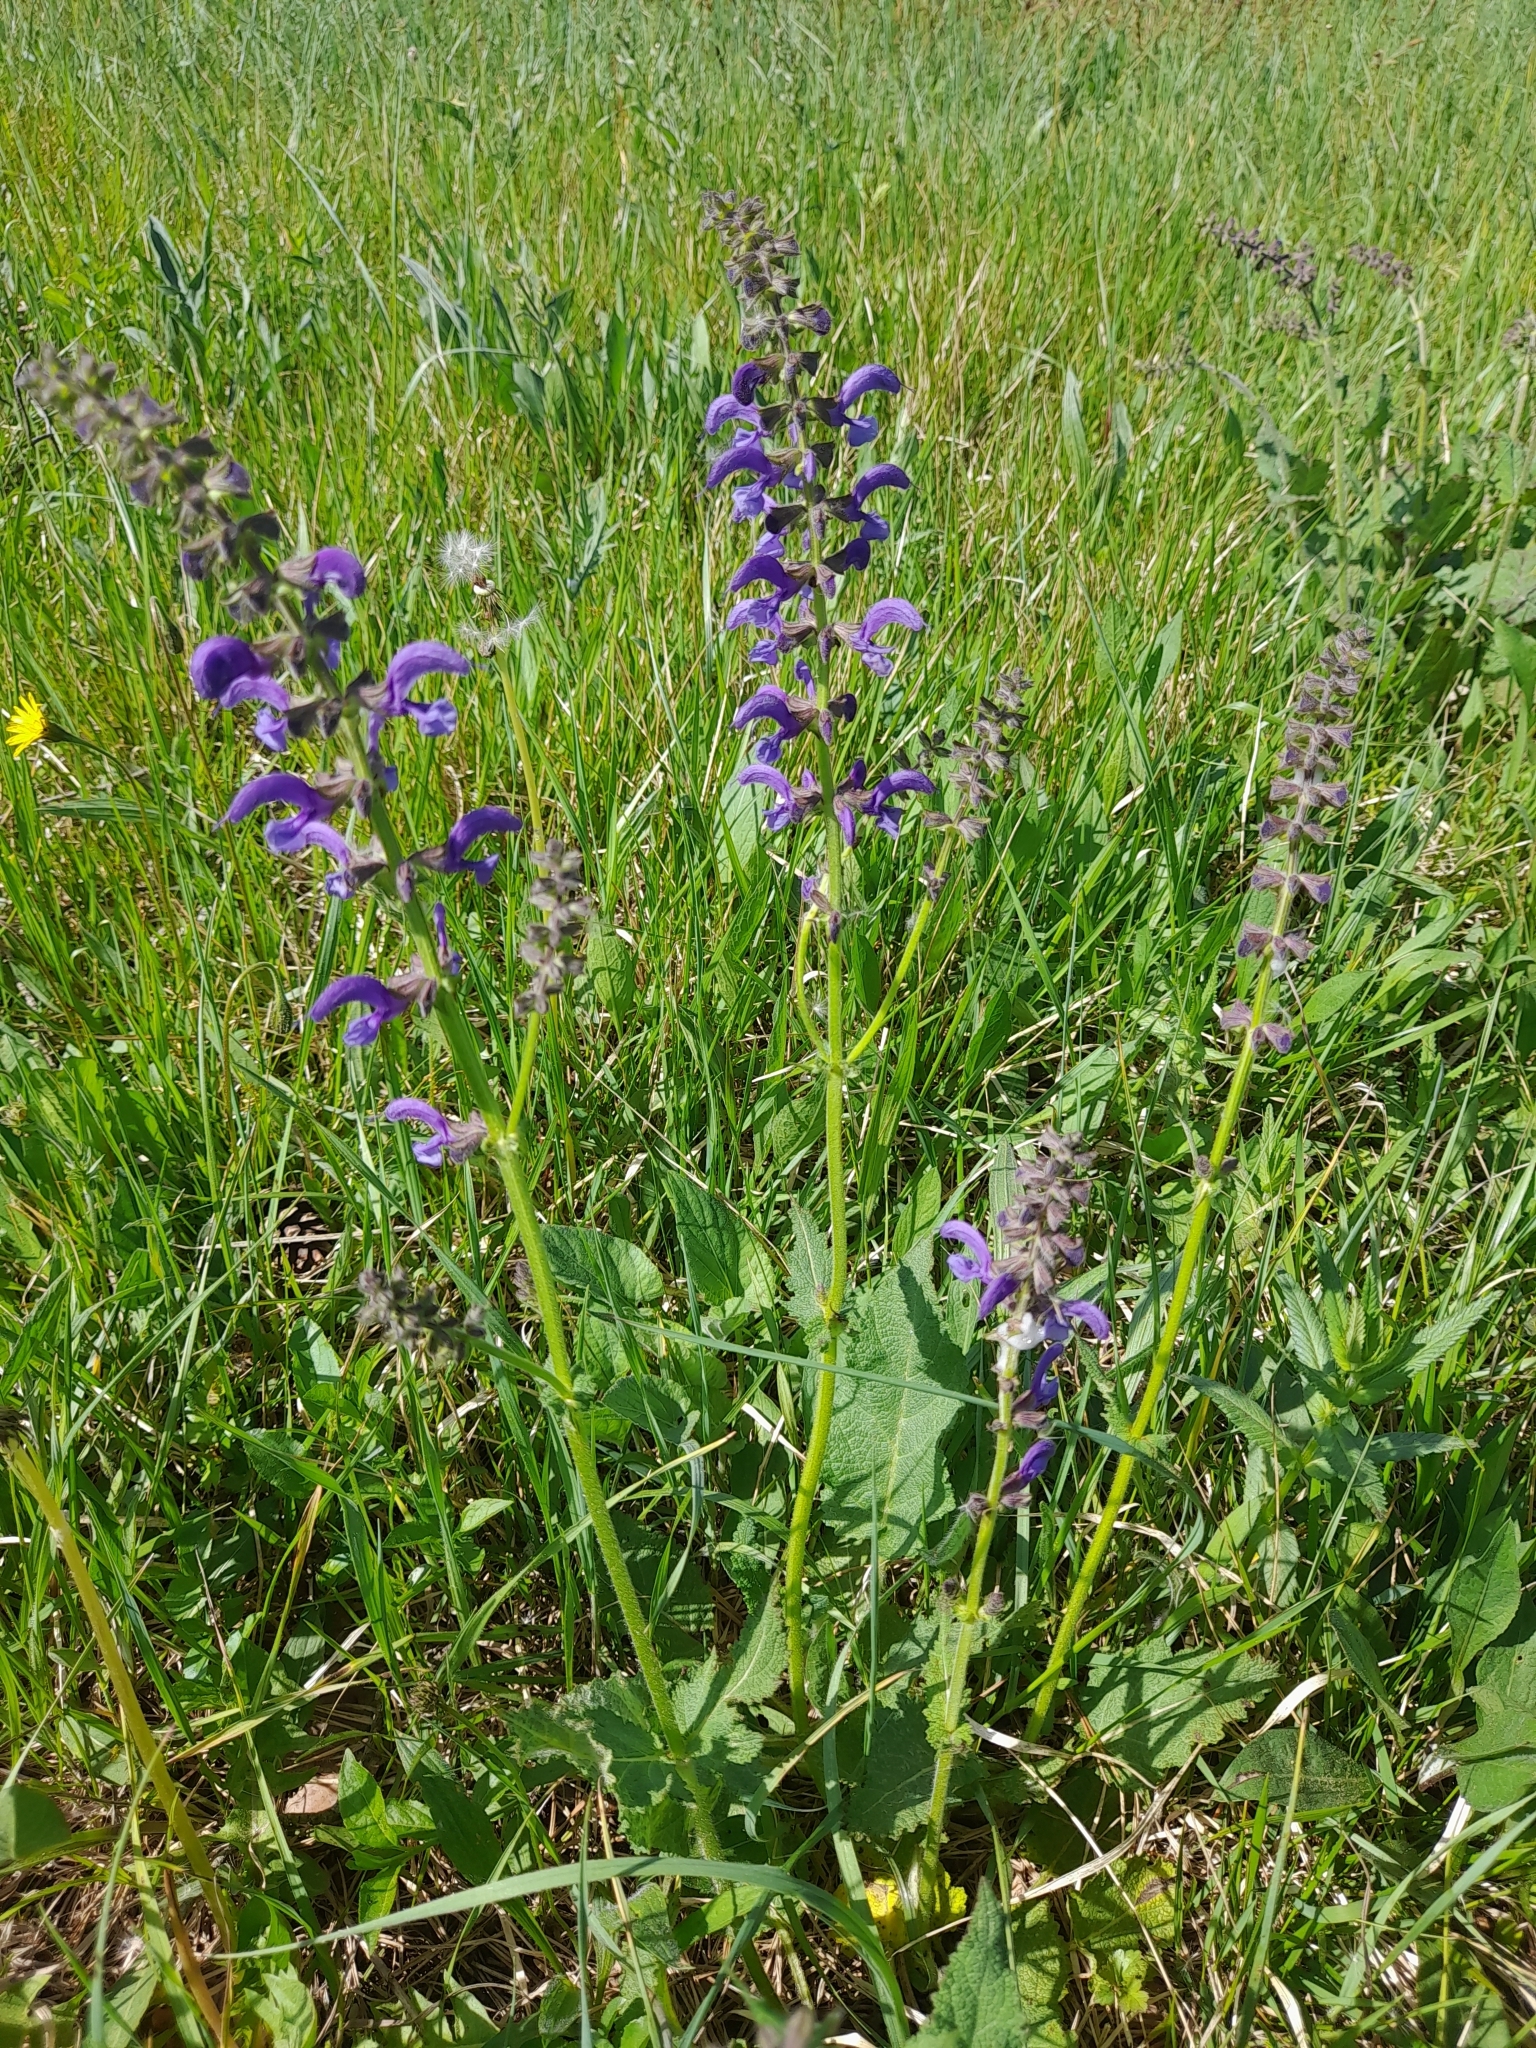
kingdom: Plantae
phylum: Tracheophyta
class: Magnoliopsida
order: Lamiales
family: Lamiaceae
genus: Salvia
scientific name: Salvia pratensis
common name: Meadow sage
